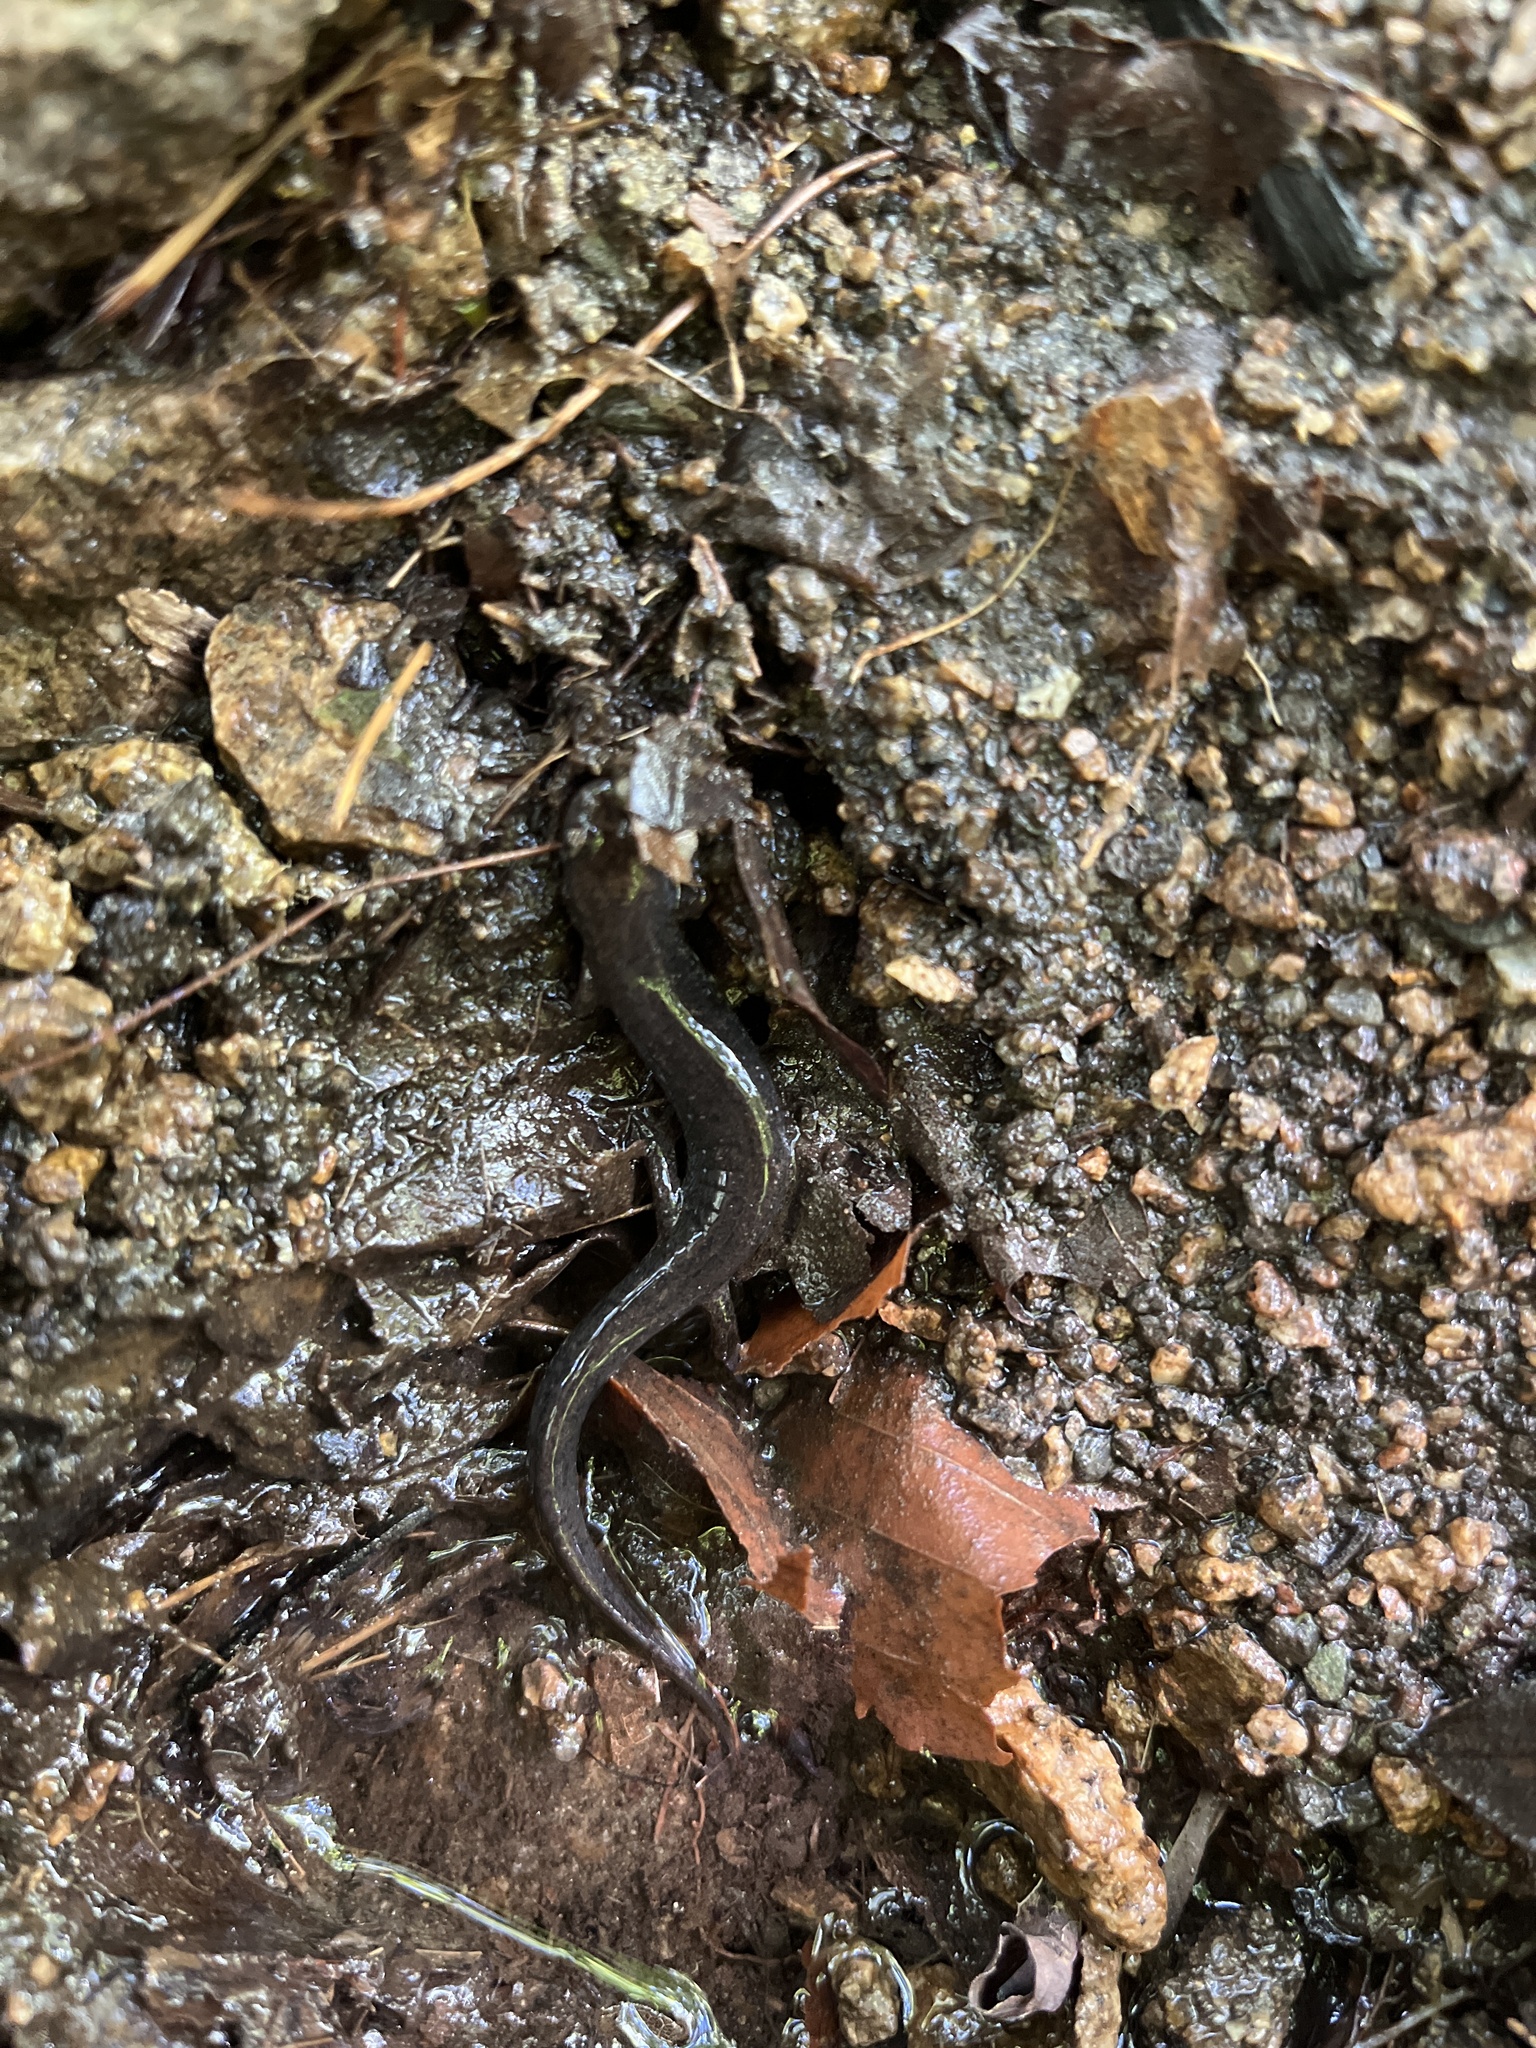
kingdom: Animalia
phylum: Chordata
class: Amphibia
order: Caudata
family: Plethodontidae
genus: Desmognathus
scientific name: Desmognathus fuscus
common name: Northern dusky salamander
